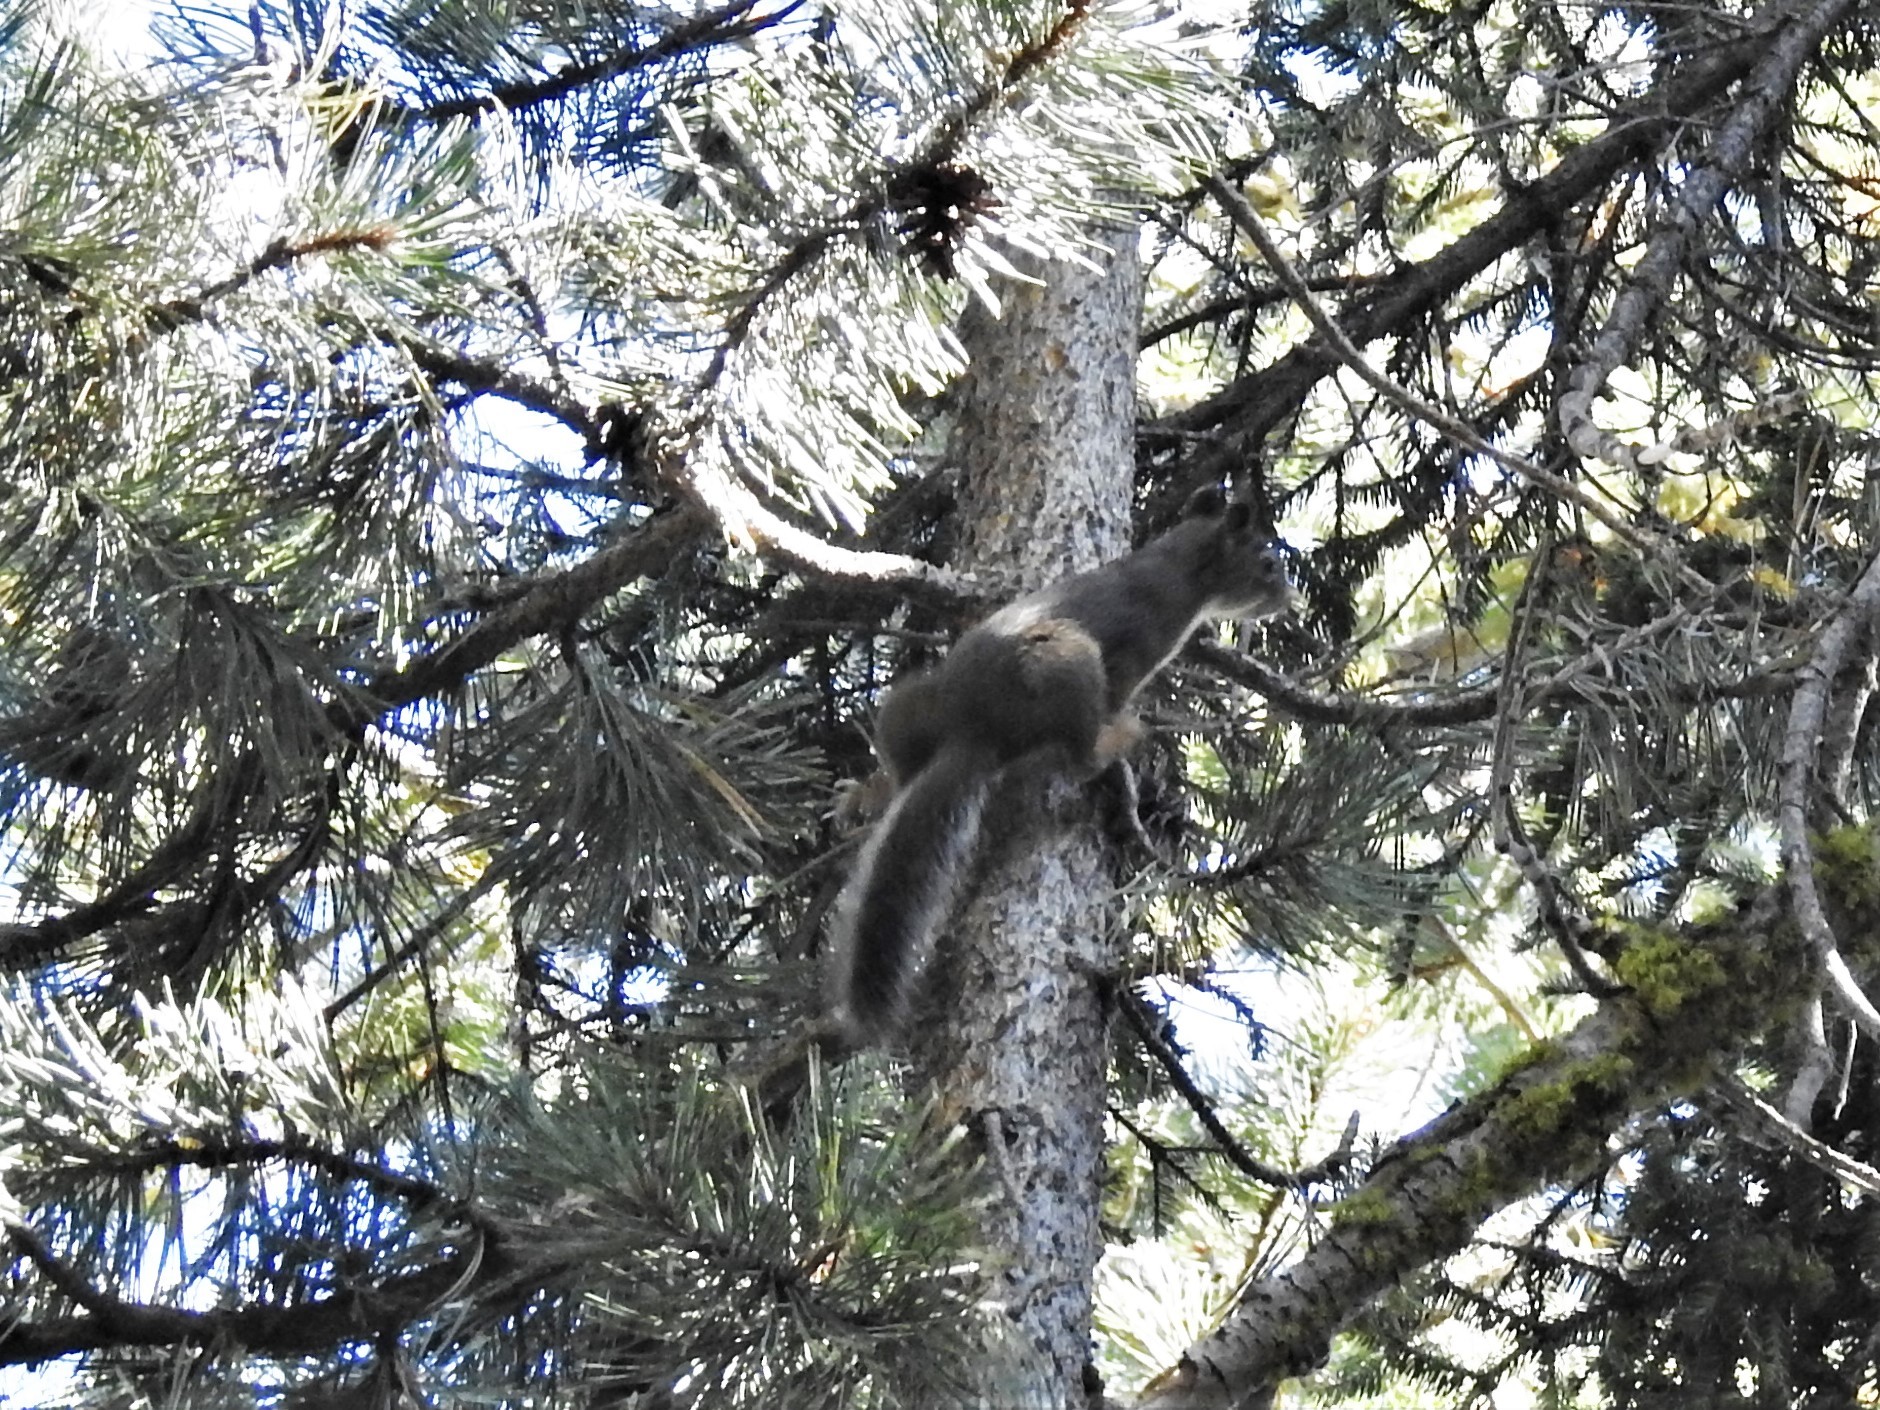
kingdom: Animalia
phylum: Chordata
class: Mammalia
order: Rodentia
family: Sciuridae
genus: Tamiasciurus
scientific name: Tamiasciurus douglasii
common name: Douglas's squirrel
